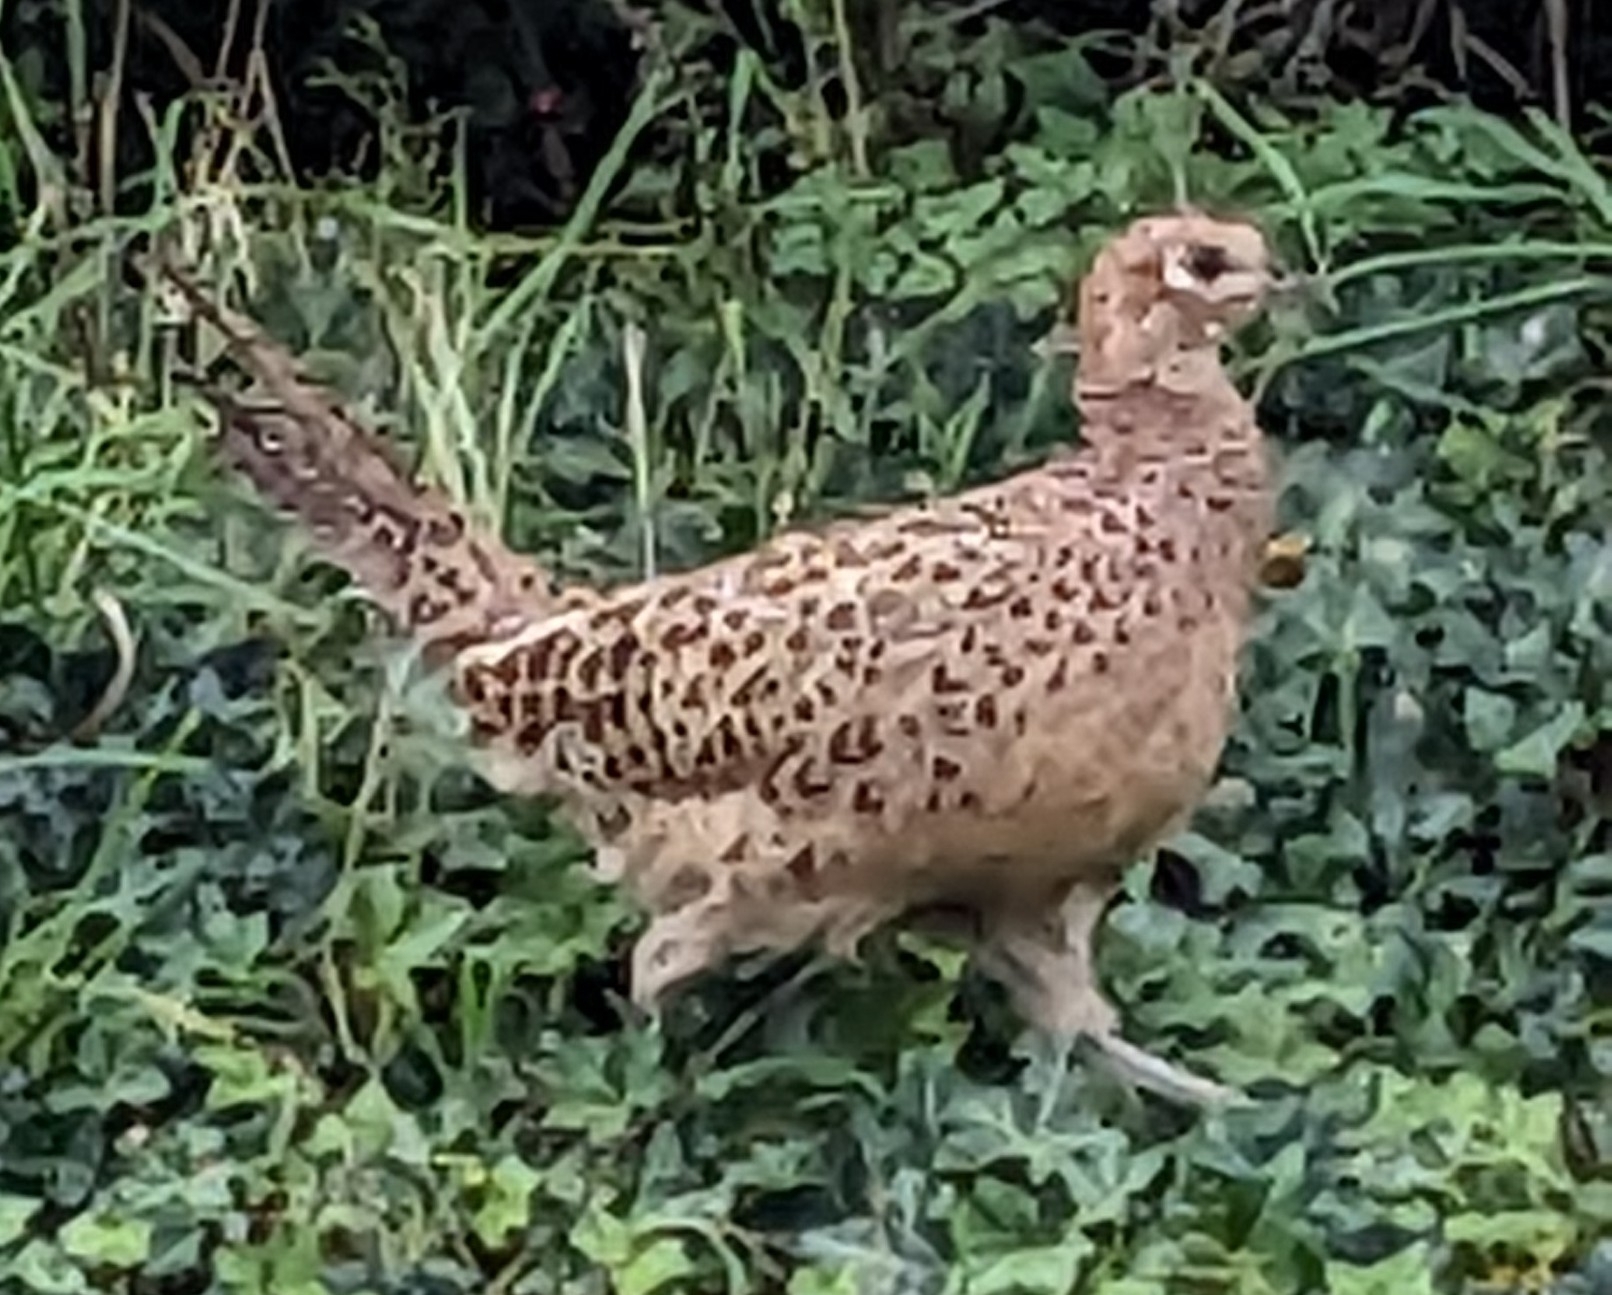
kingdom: Animalia
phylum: Chordata
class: Aves
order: Galliformes
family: Phasianidae
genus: Phasianus
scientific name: Phasianus colchicus
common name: Common pheasant
